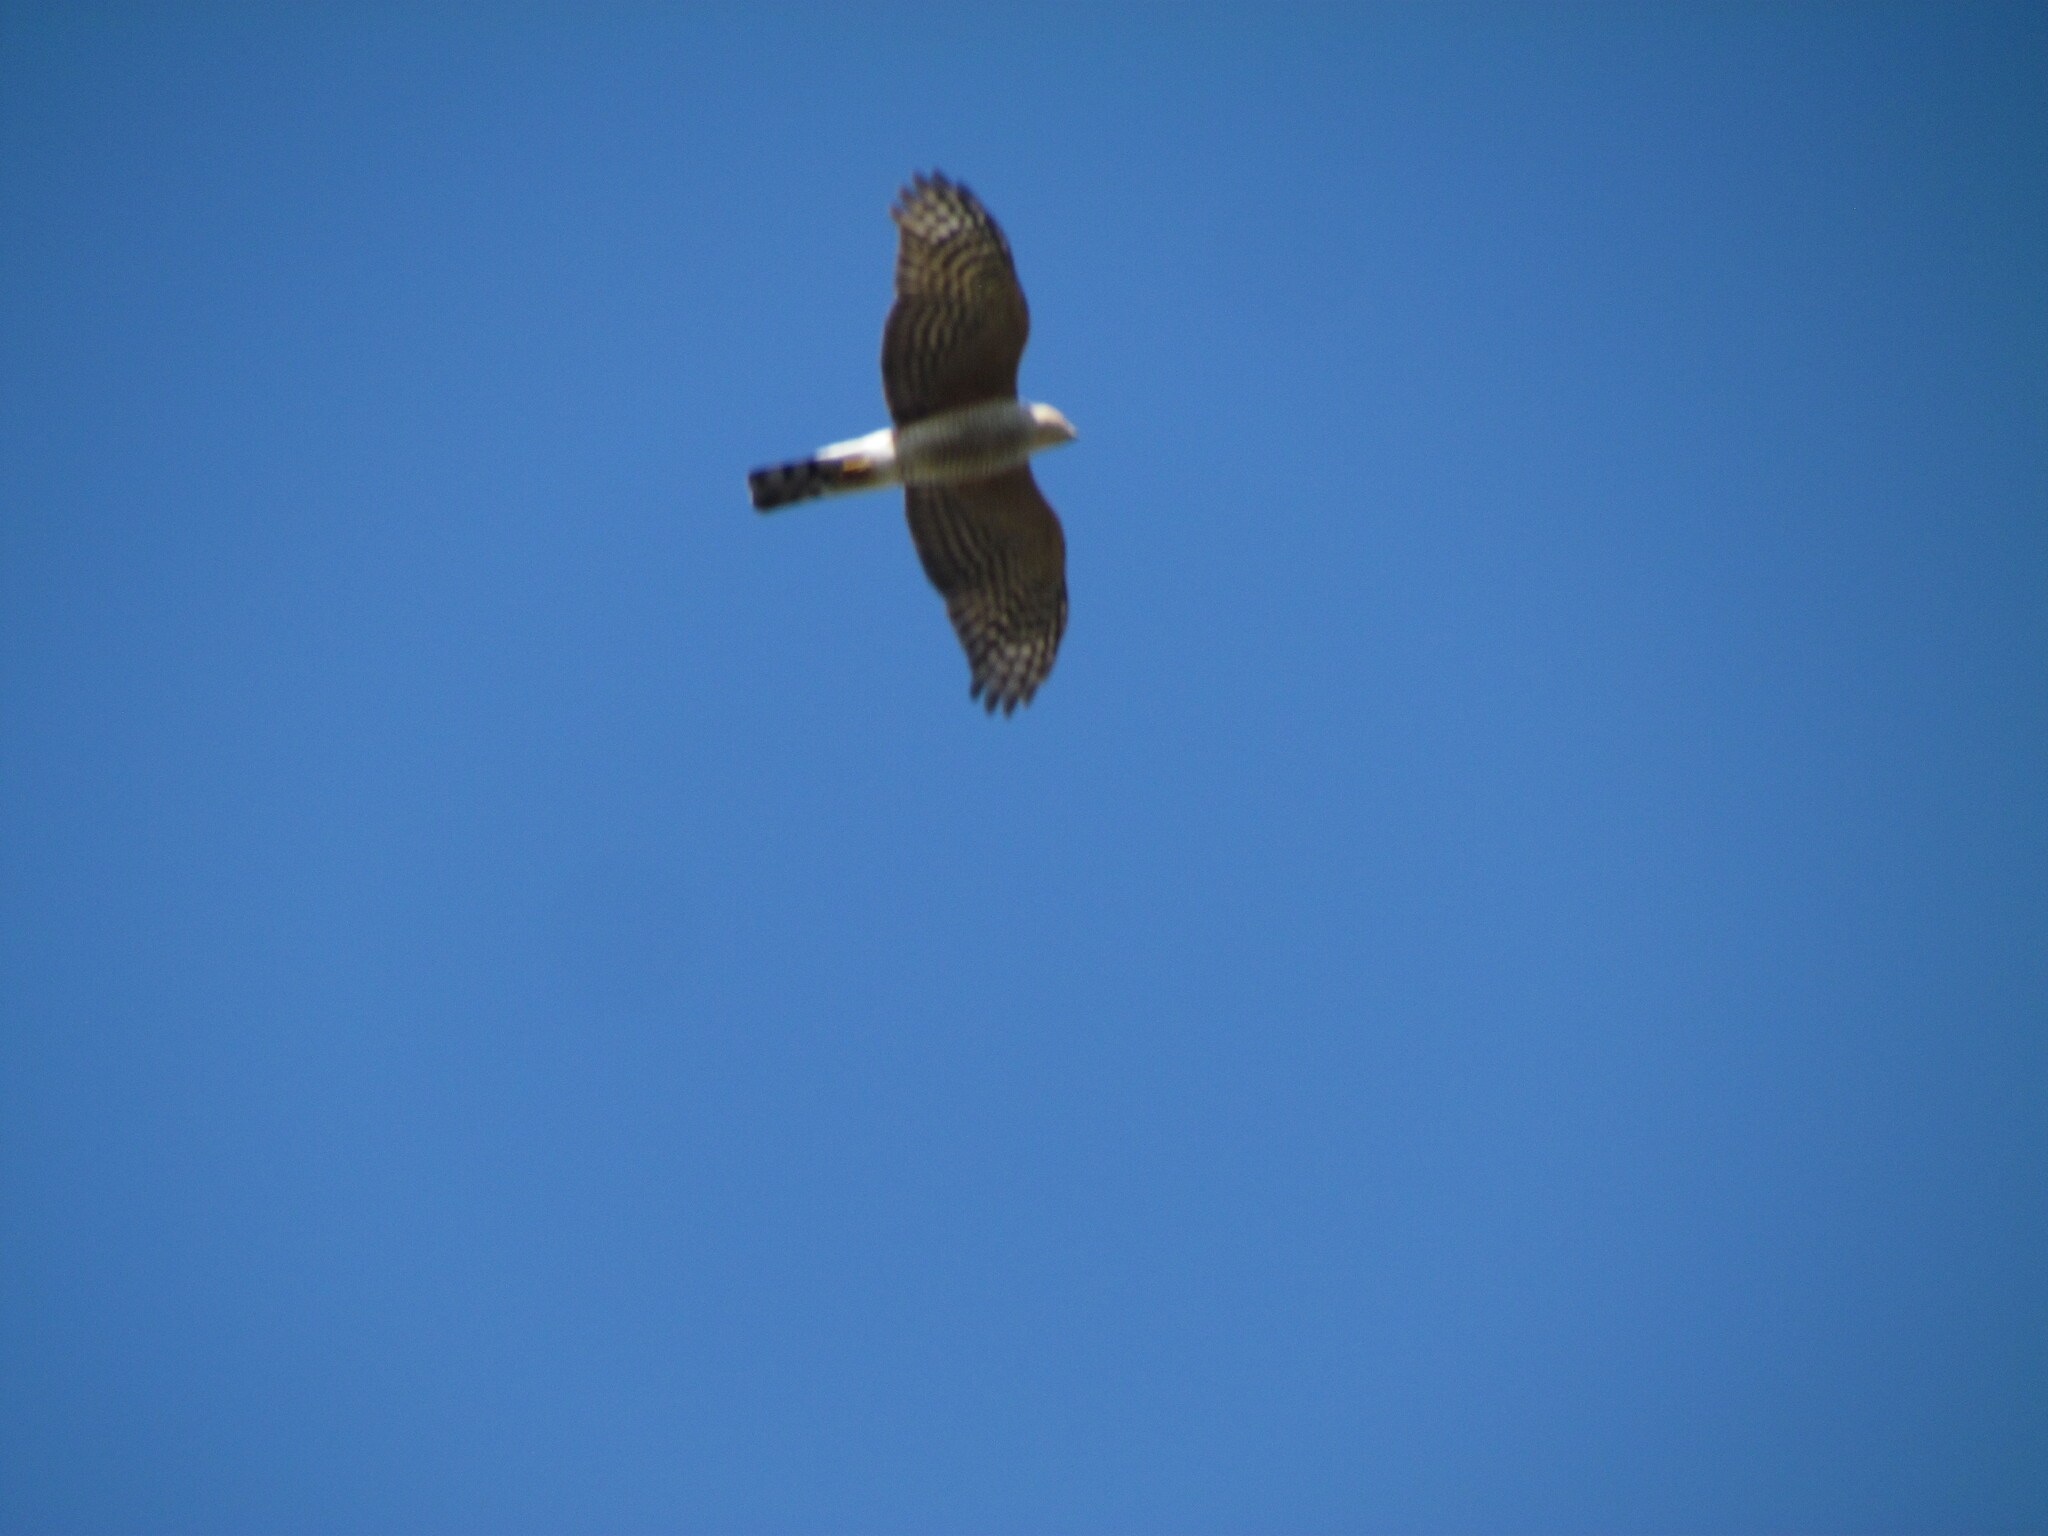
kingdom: Animalia
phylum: Chordata
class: Aves
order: Accipitriformes
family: Accipitridae
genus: Accipiter
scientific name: Accipiter striatus
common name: Sharp-shinned hawk
